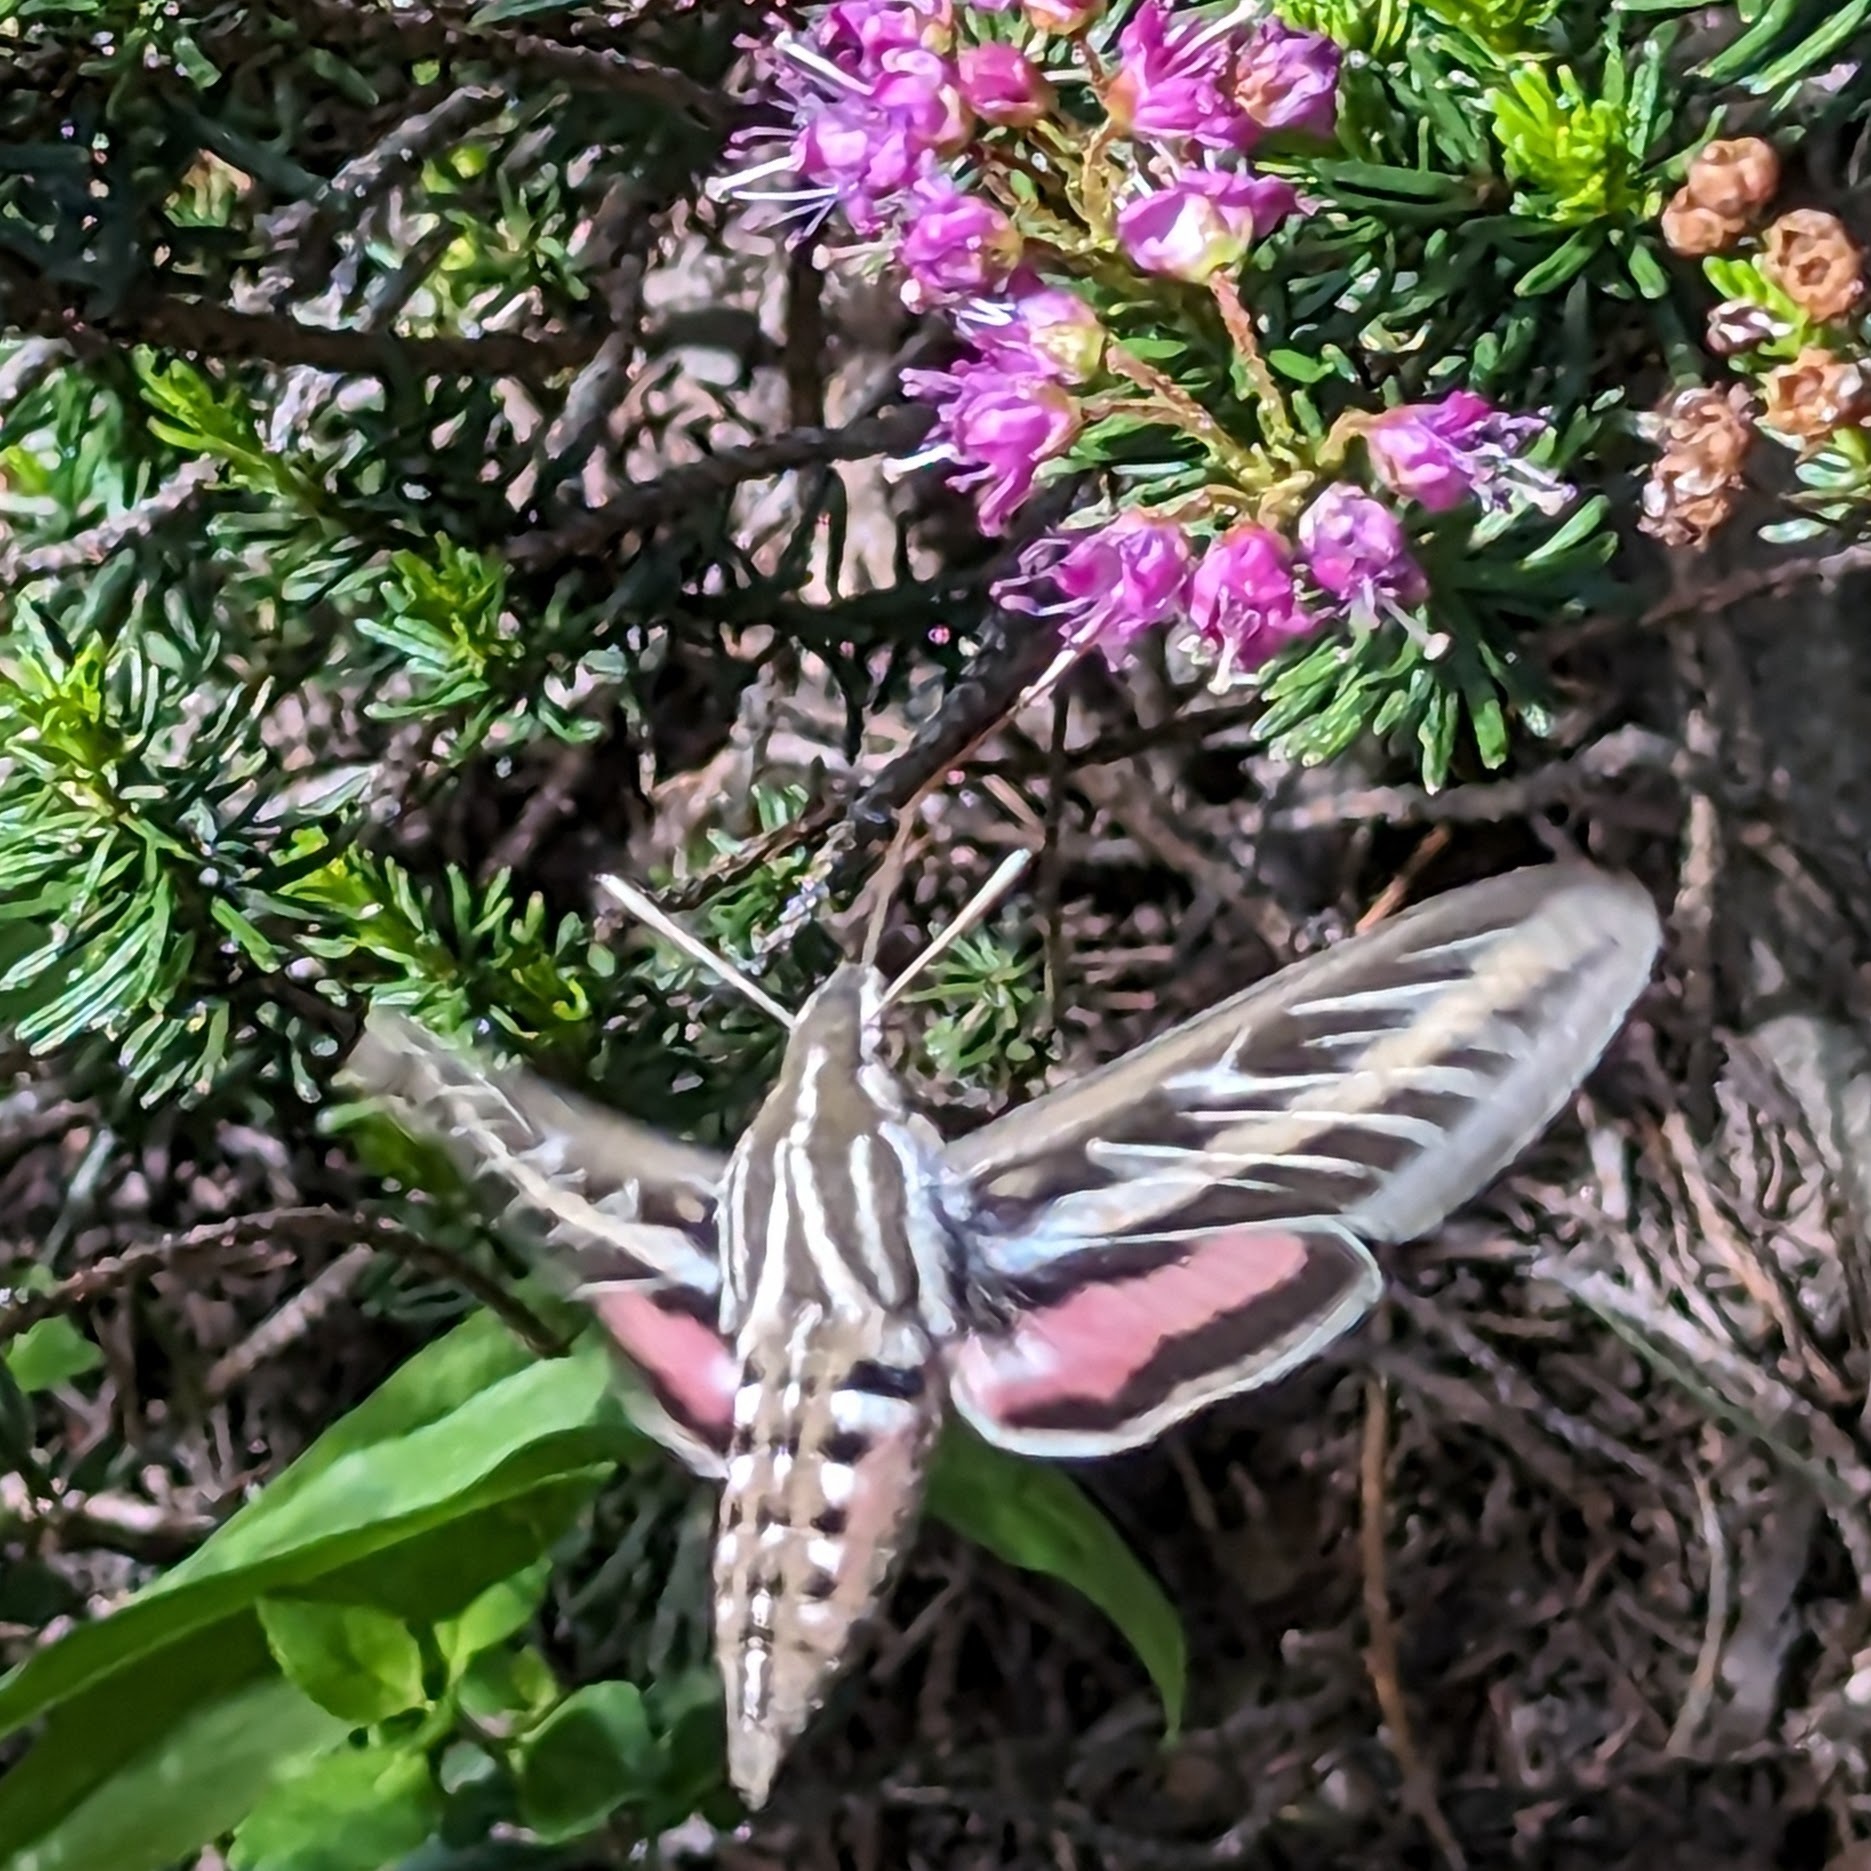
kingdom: Animalia
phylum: Arthropoda
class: Insecta
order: Lepidoptera
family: Sphingidae
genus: Hyles
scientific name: Hyles lineata
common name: White-lined sphinx
